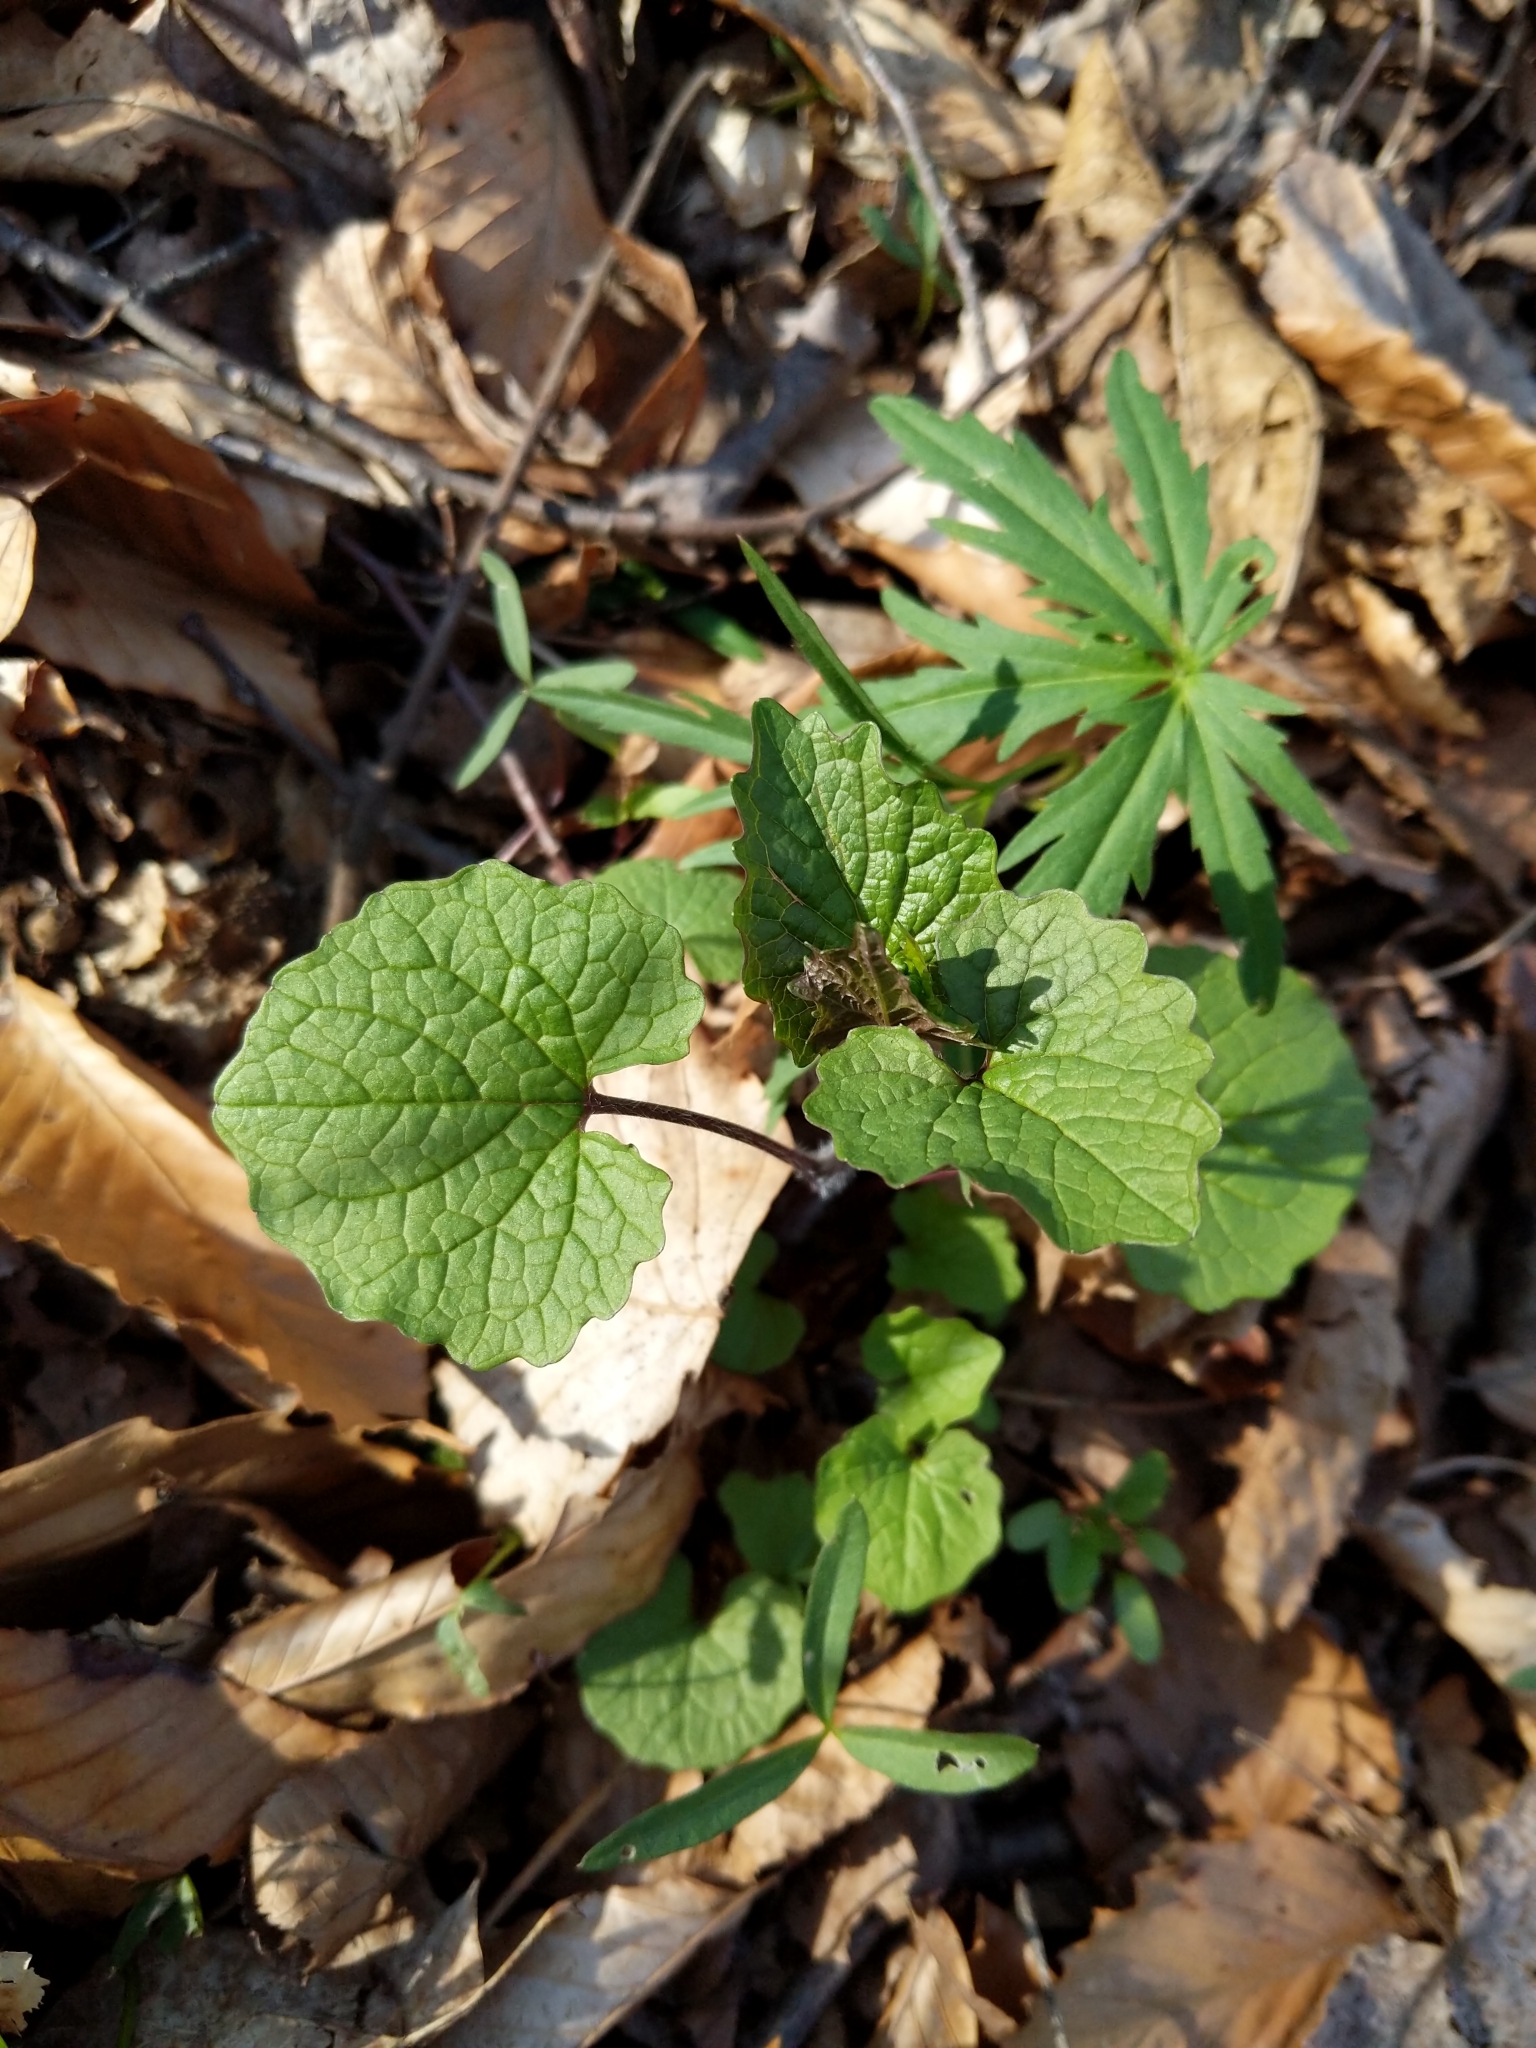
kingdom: Plantae
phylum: Tracheophyta
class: Magnoliopsida
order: Brassicales
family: Brassicaceae
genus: Alliaria
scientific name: Alliaria petiolata
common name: Garlic mustard
